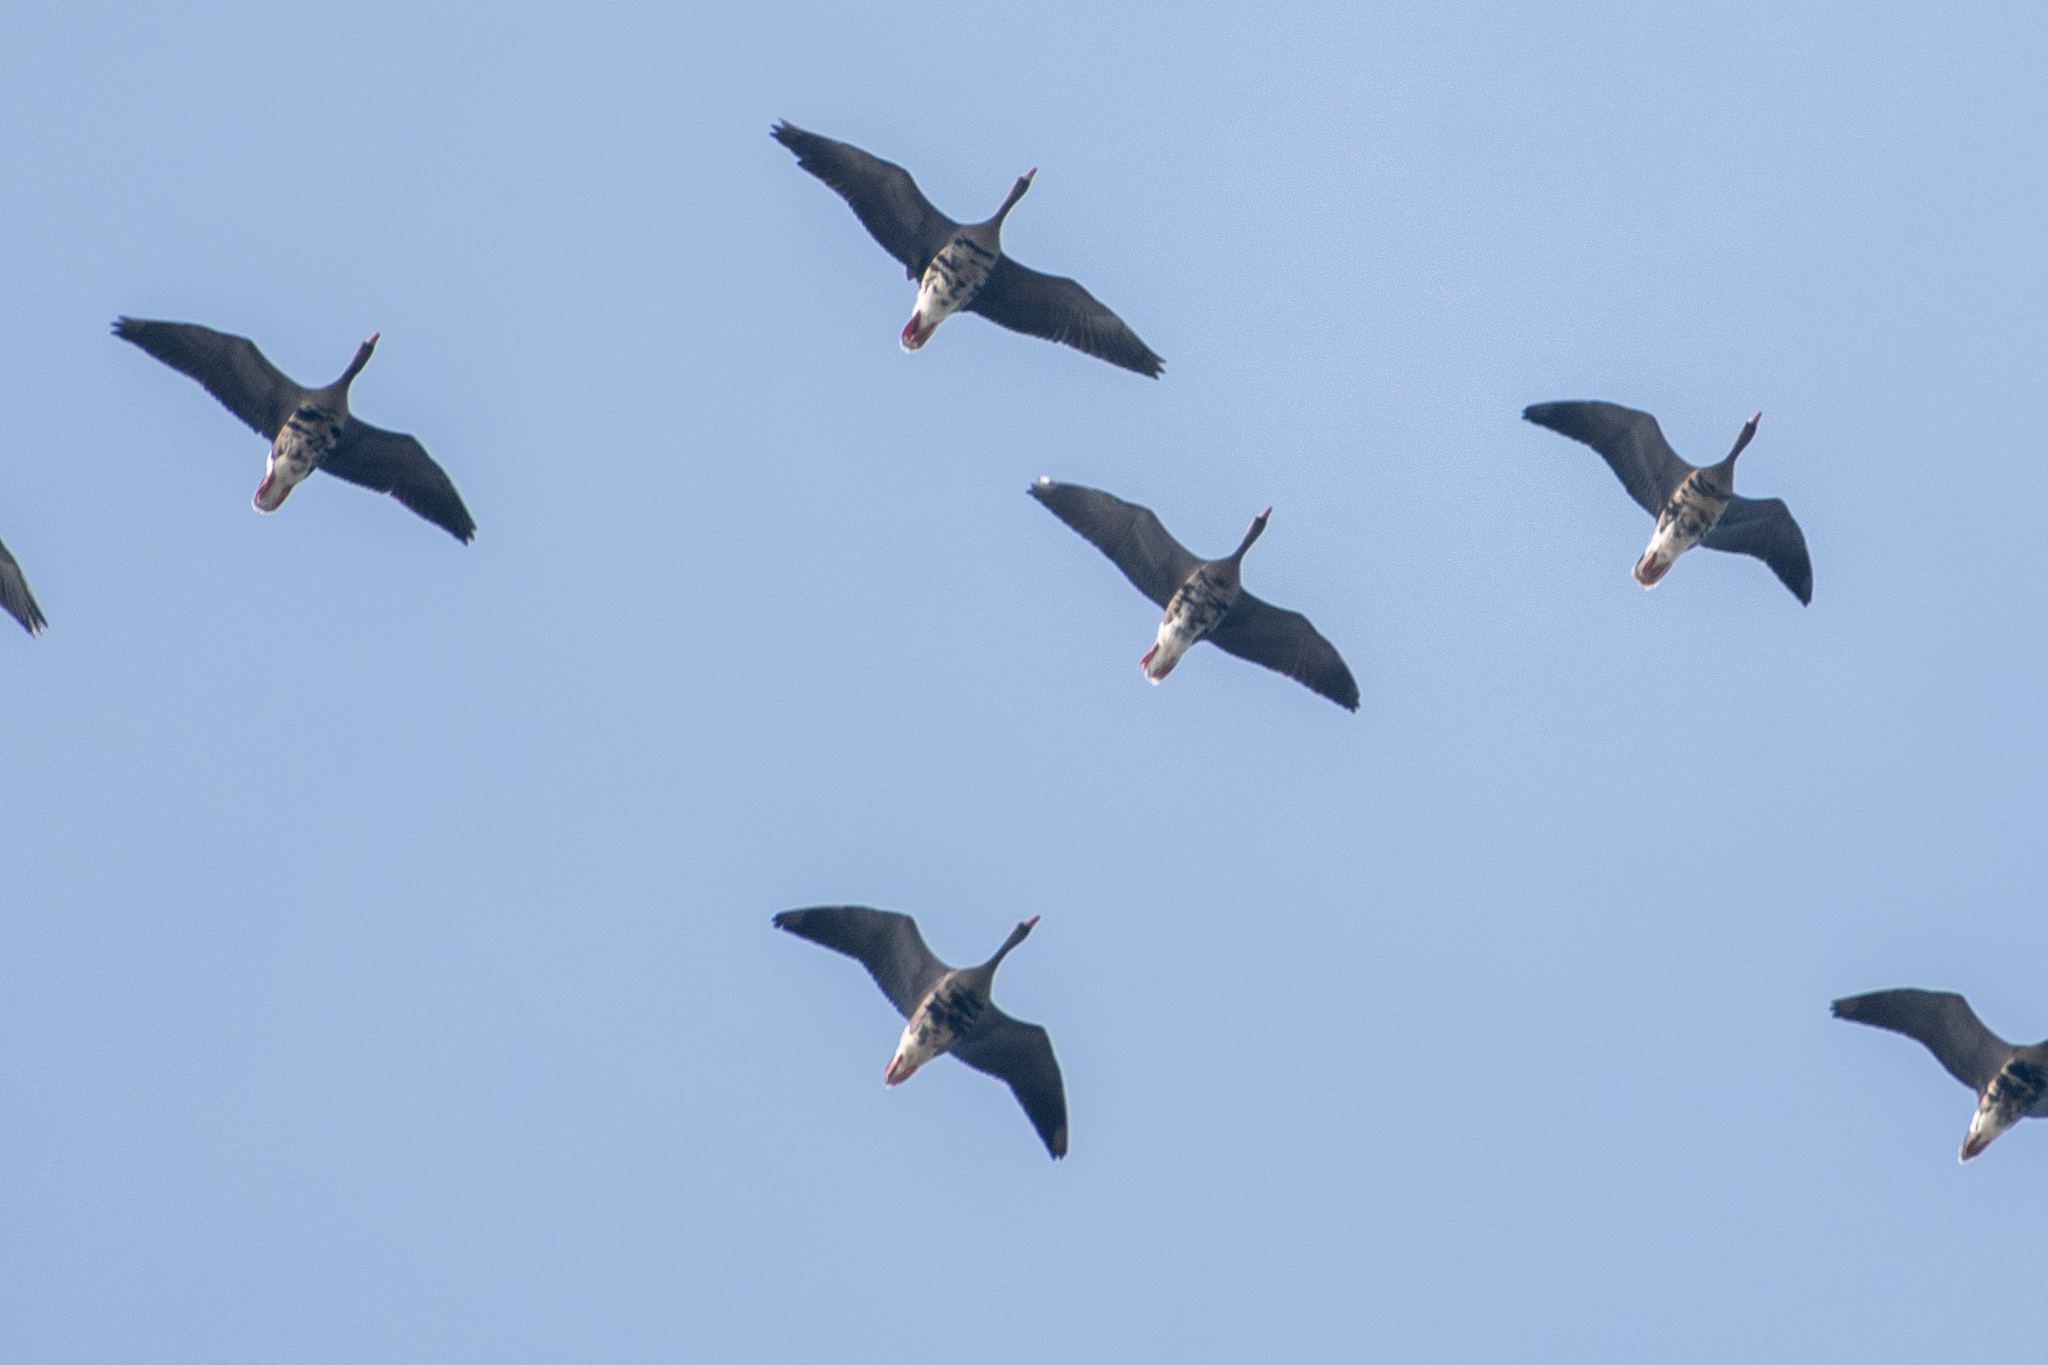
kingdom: Animalia
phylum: Chordata
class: Aves
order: Anseriformes
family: Anatidae
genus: Anser
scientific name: Anser albifrons
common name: Greater white-fronted goose
